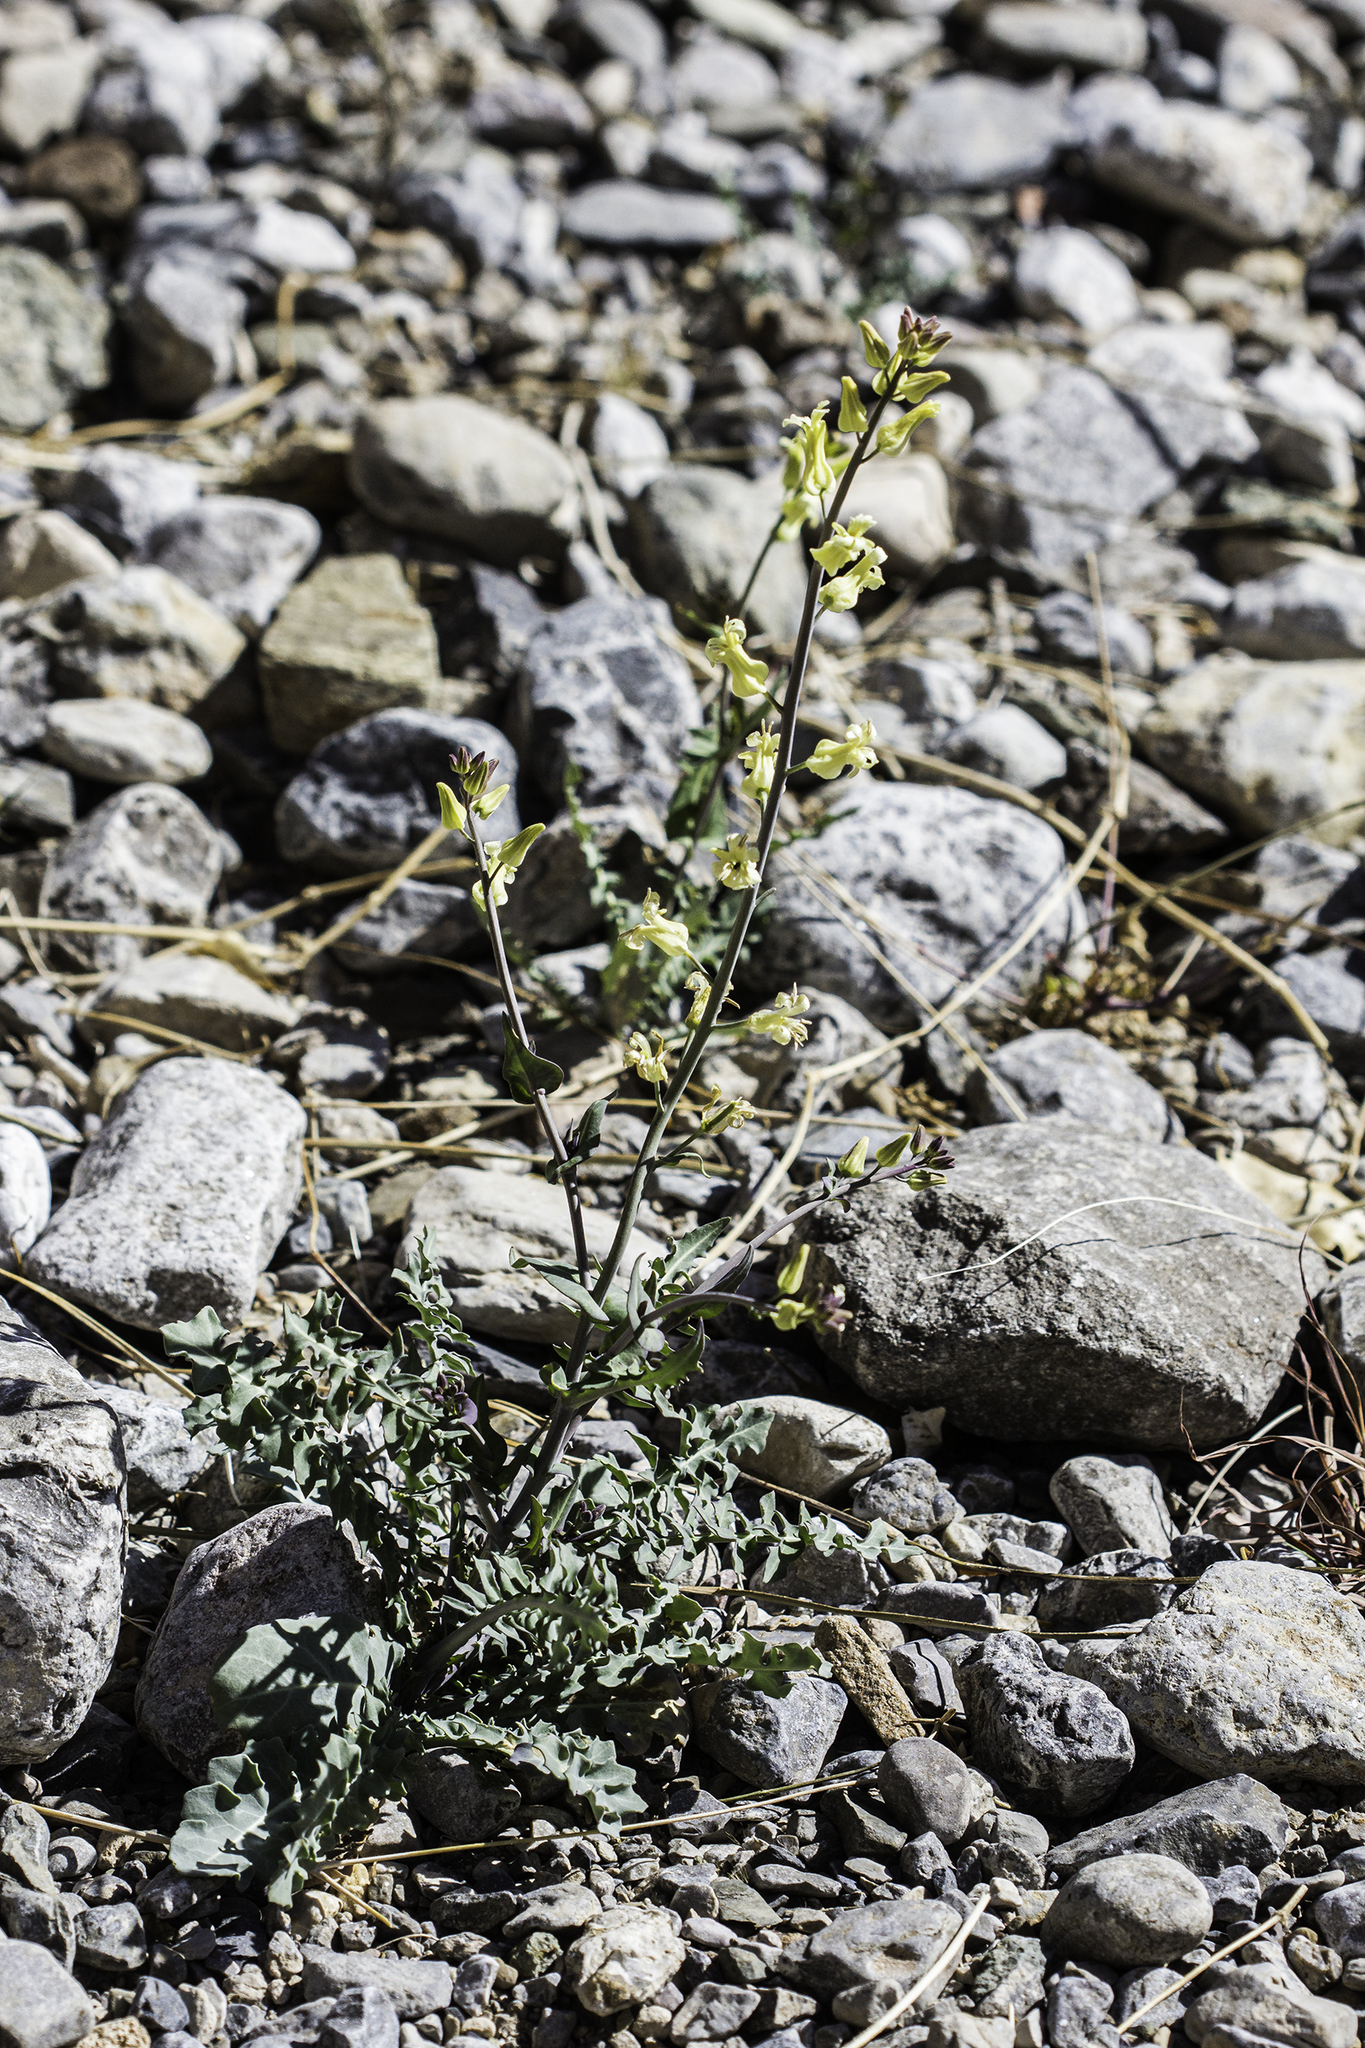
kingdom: Plantae
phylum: Tracheophyta
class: Magnoliopsida
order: Brassicales
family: Brassicaceae
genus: Streptanthus
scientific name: Streptanthus carinatus
